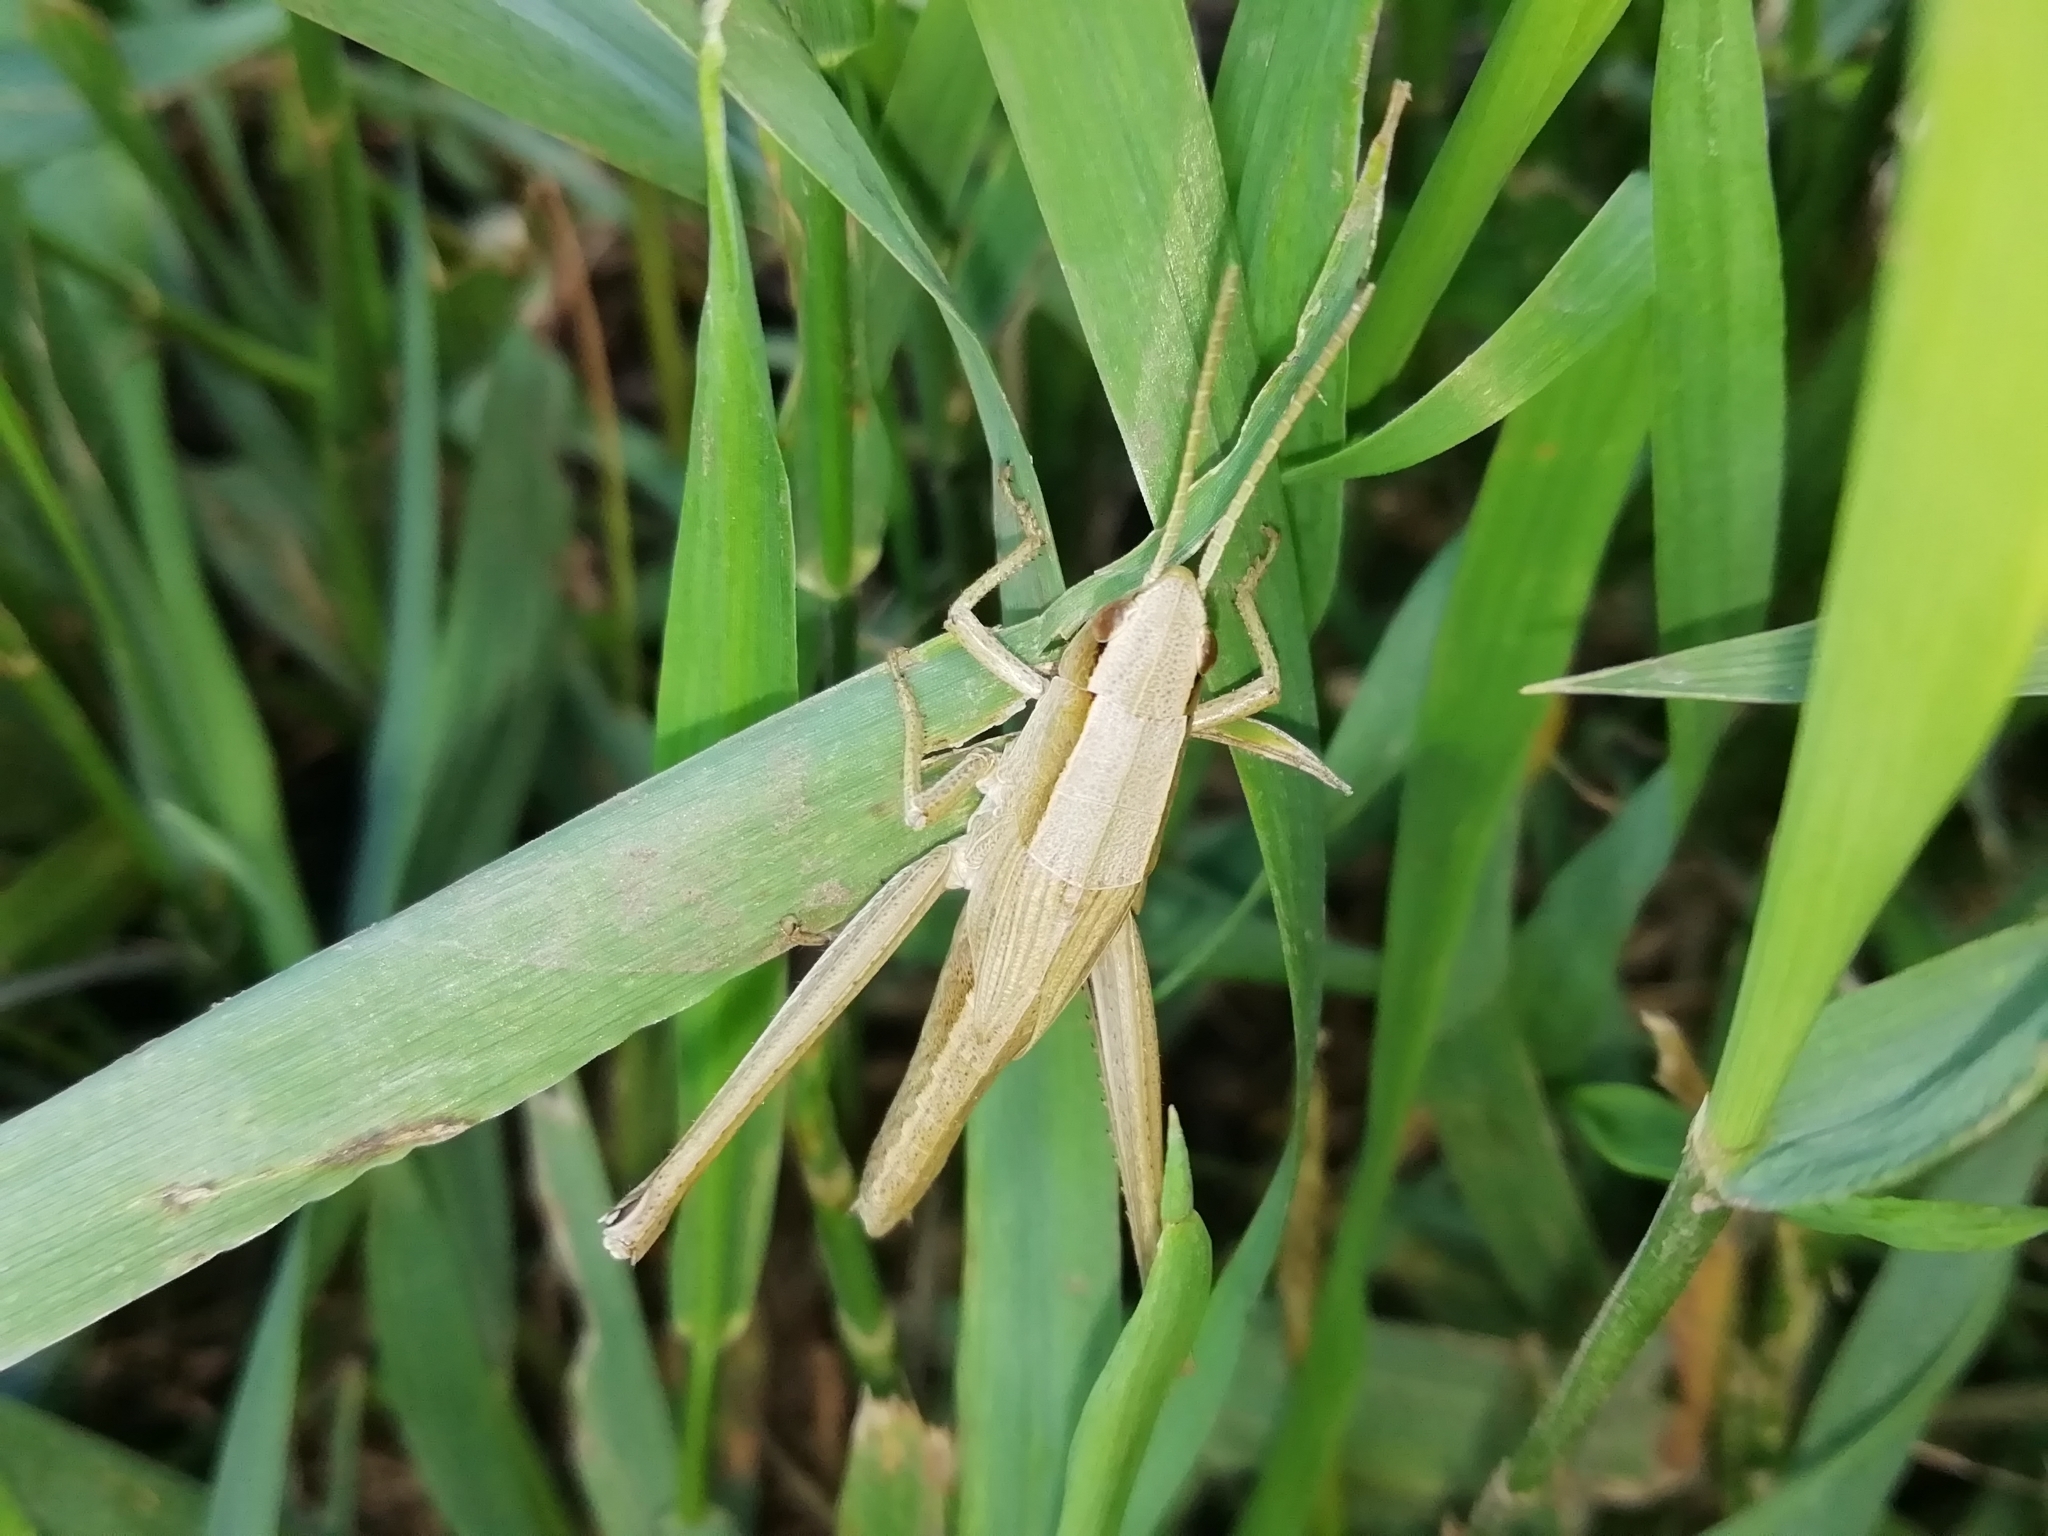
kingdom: Animalia
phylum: Arthropoda
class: Insecta
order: Orthoptera
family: Acrididae
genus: Chrysochraon
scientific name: Chrysochraon dispar
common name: Large gold grasshopper
